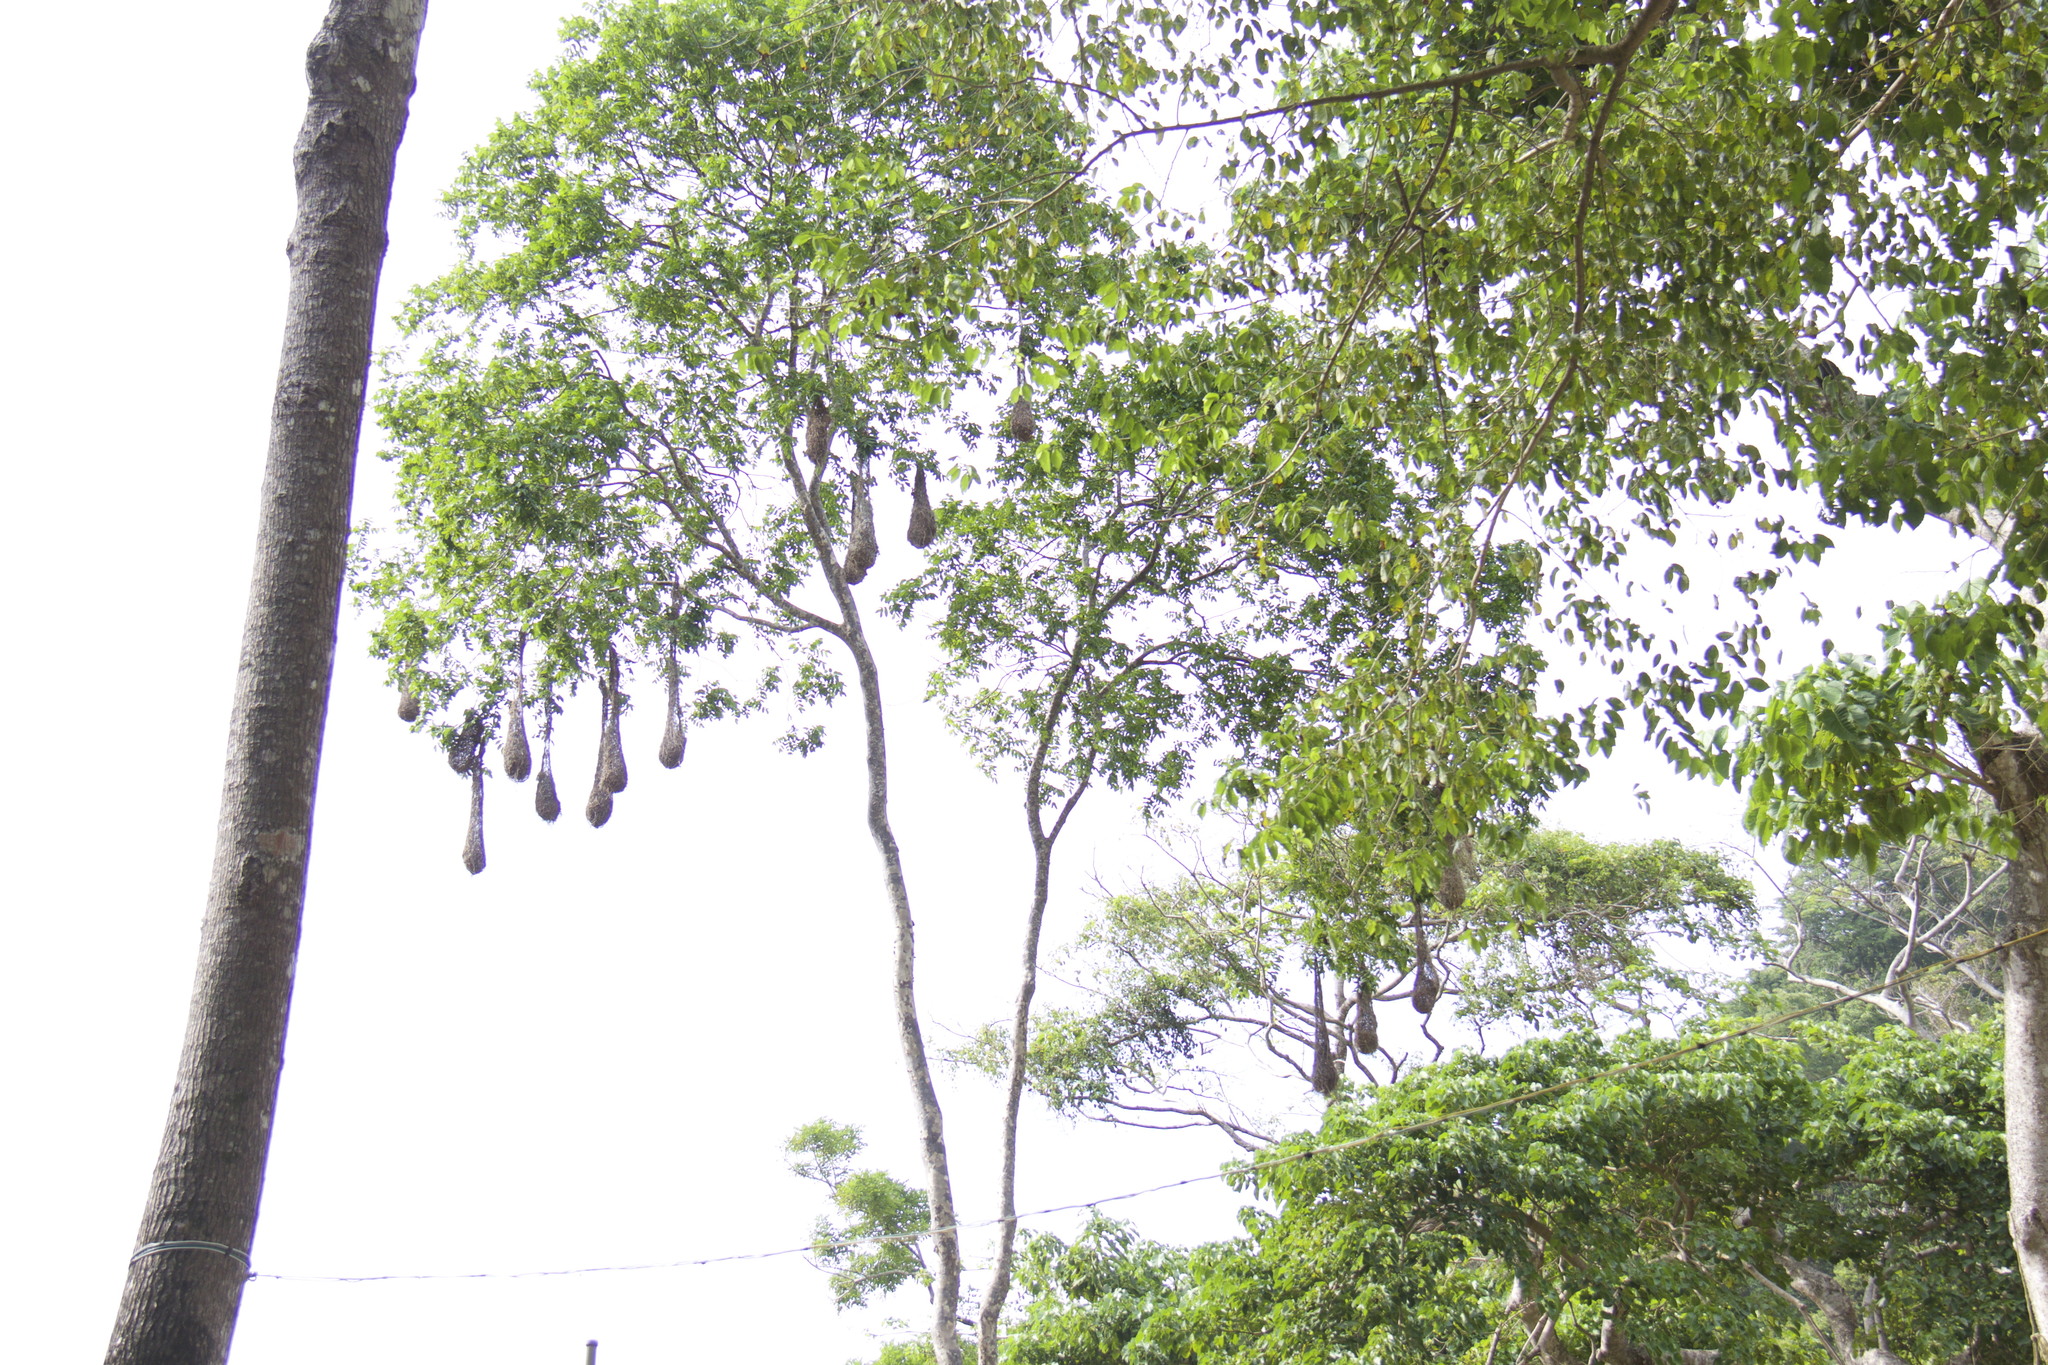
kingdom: Animalia
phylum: Chordata
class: Aves
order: Passeriformes
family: Icteridae
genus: Psarocolius
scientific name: Psarocolius decumanus
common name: Crested oropendola
